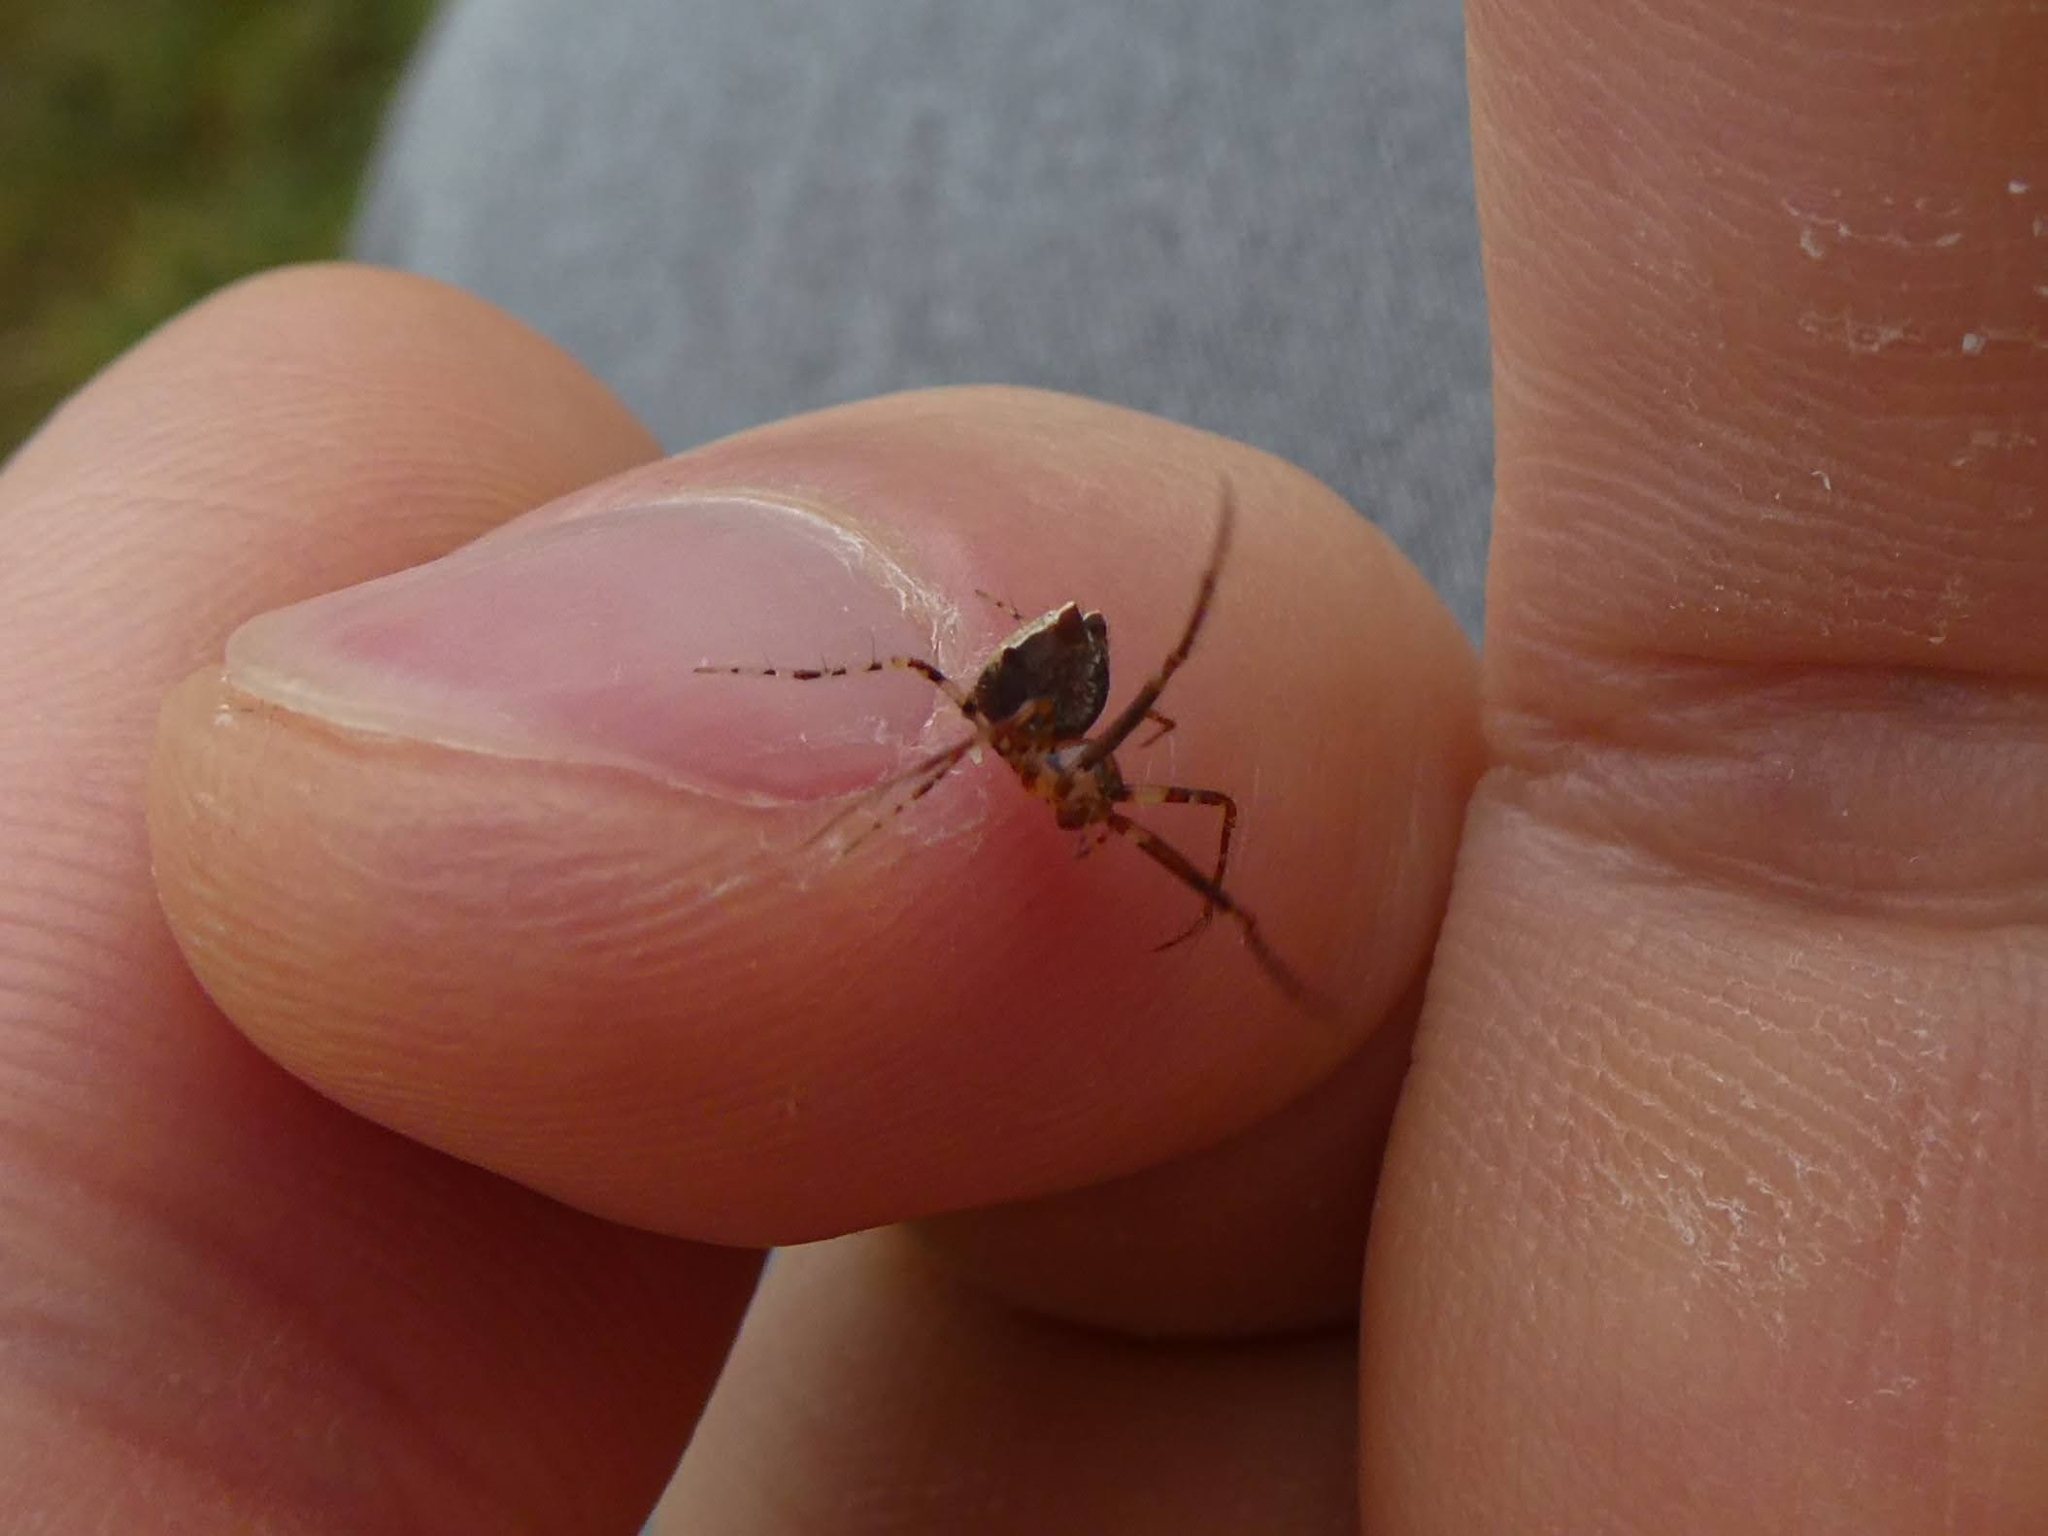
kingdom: Animalia
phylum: Arthropoda
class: Arachnida
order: Araneae
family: Mimetidae
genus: Ero
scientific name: Ero tuberculata
